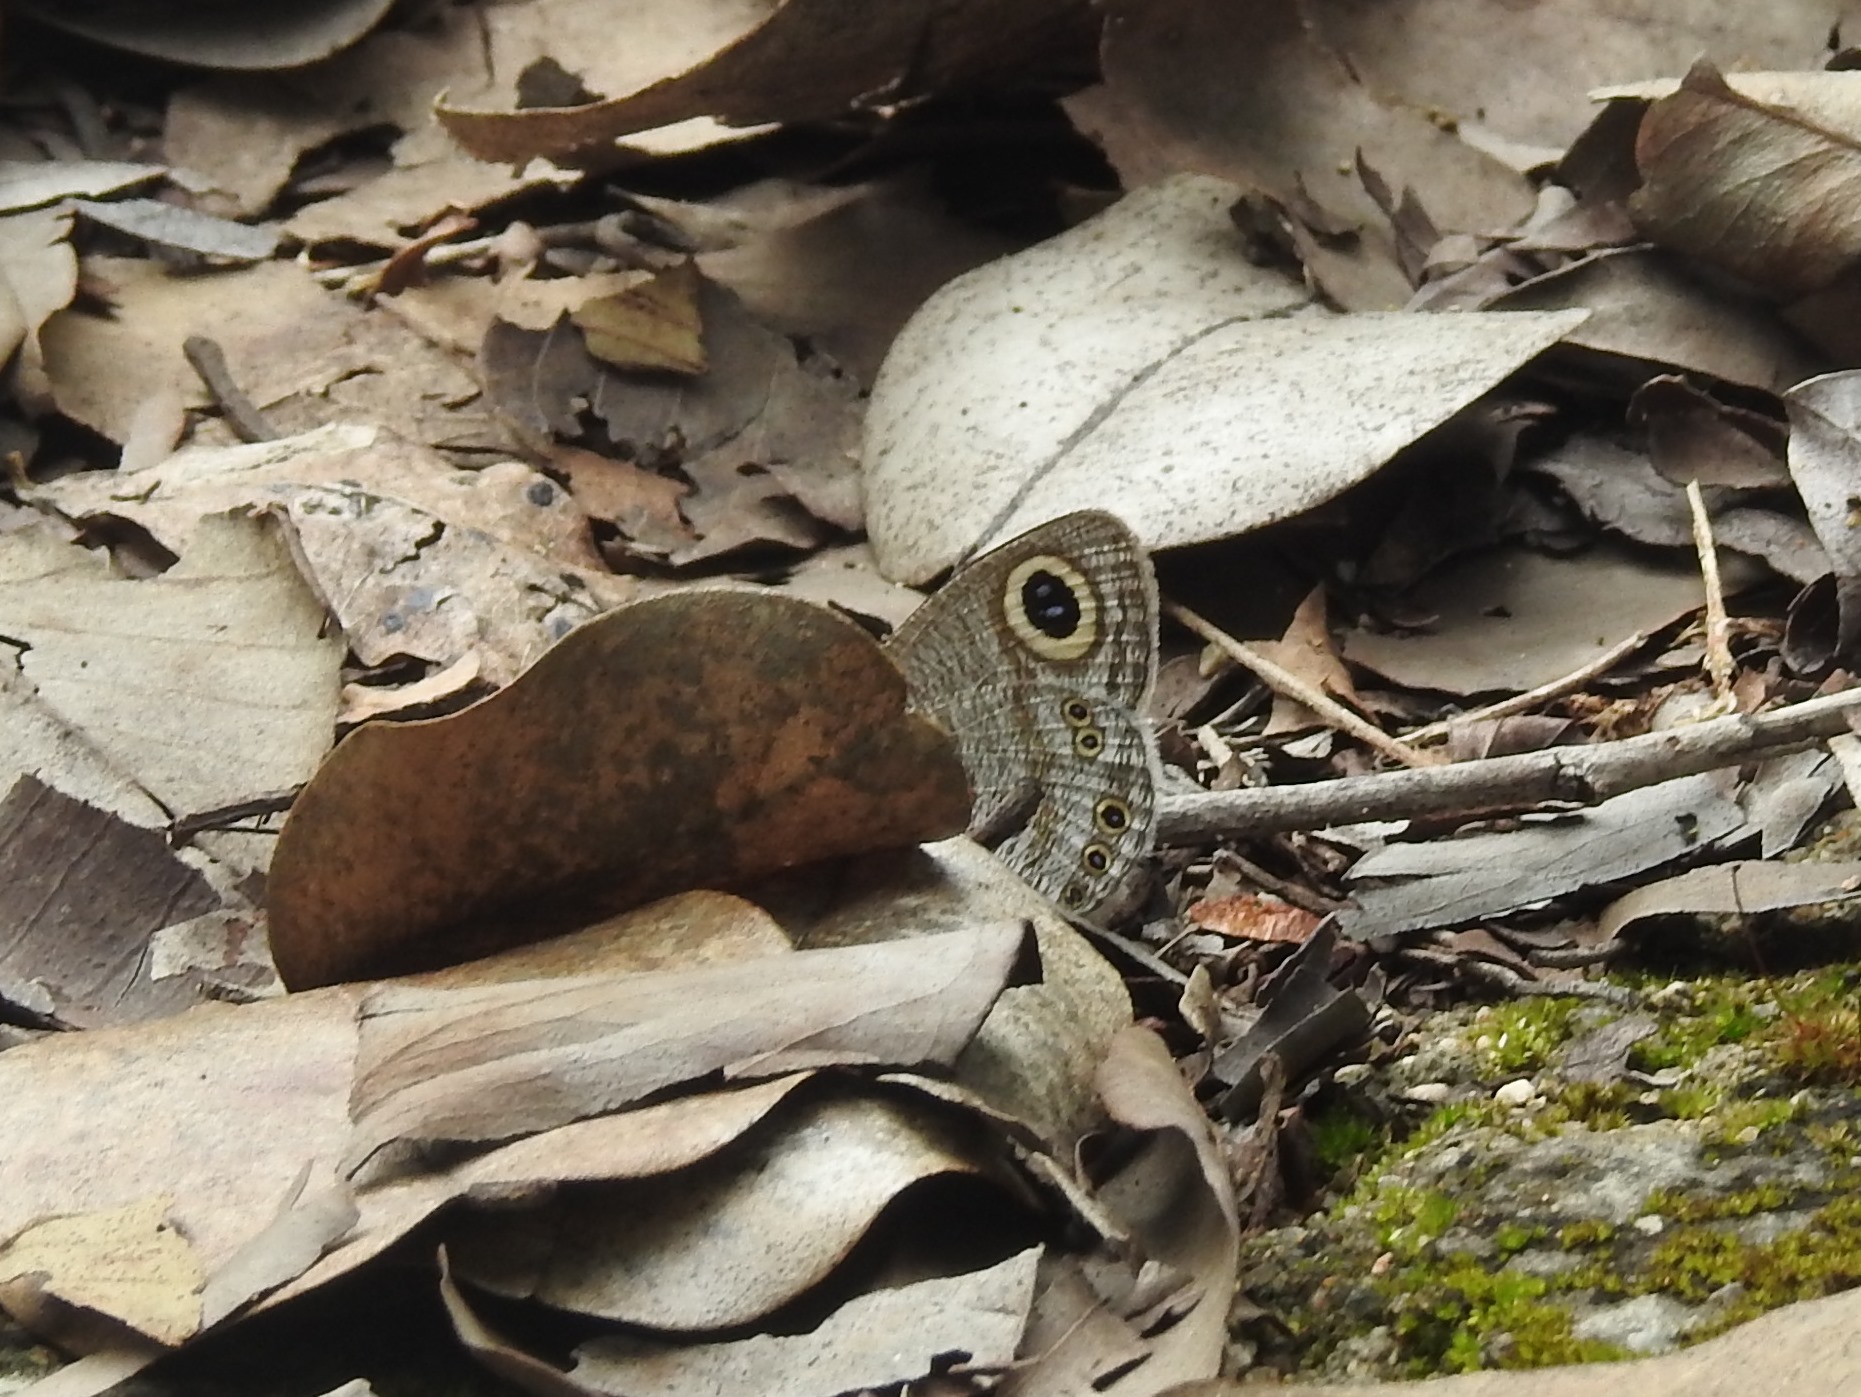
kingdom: Animalia
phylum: Arthropoda
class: Insecta
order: Lepidoptera
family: Nymphalidae
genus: Ypthima
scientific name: Ypthima avanta
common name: Jewel five-ring
